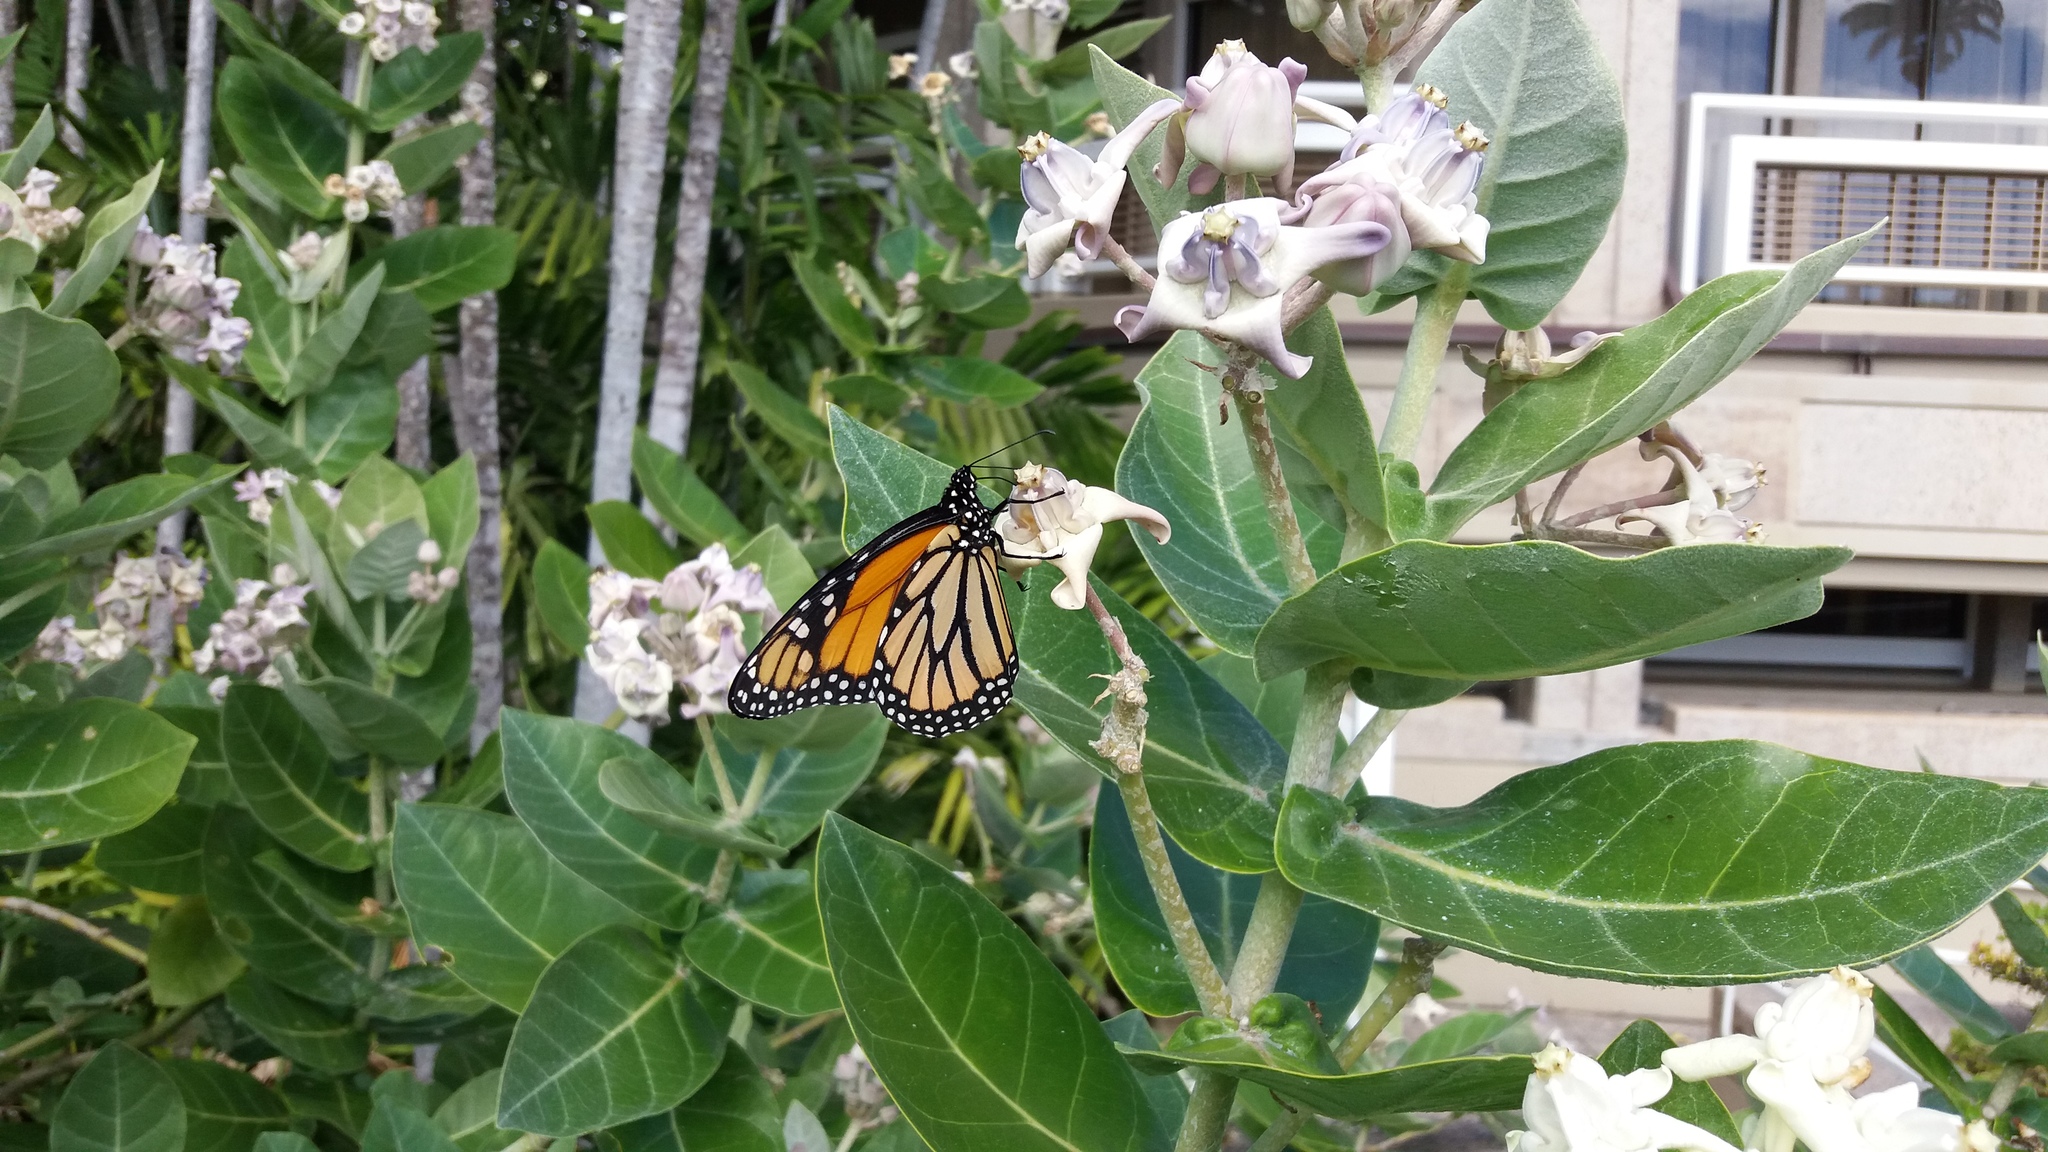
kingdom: Animalia
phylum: Arthropoda
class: Insecta
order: Lepidoptera
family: Nymphalidae
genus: Danaus
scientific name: Danaus plexippus
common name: Monarch
